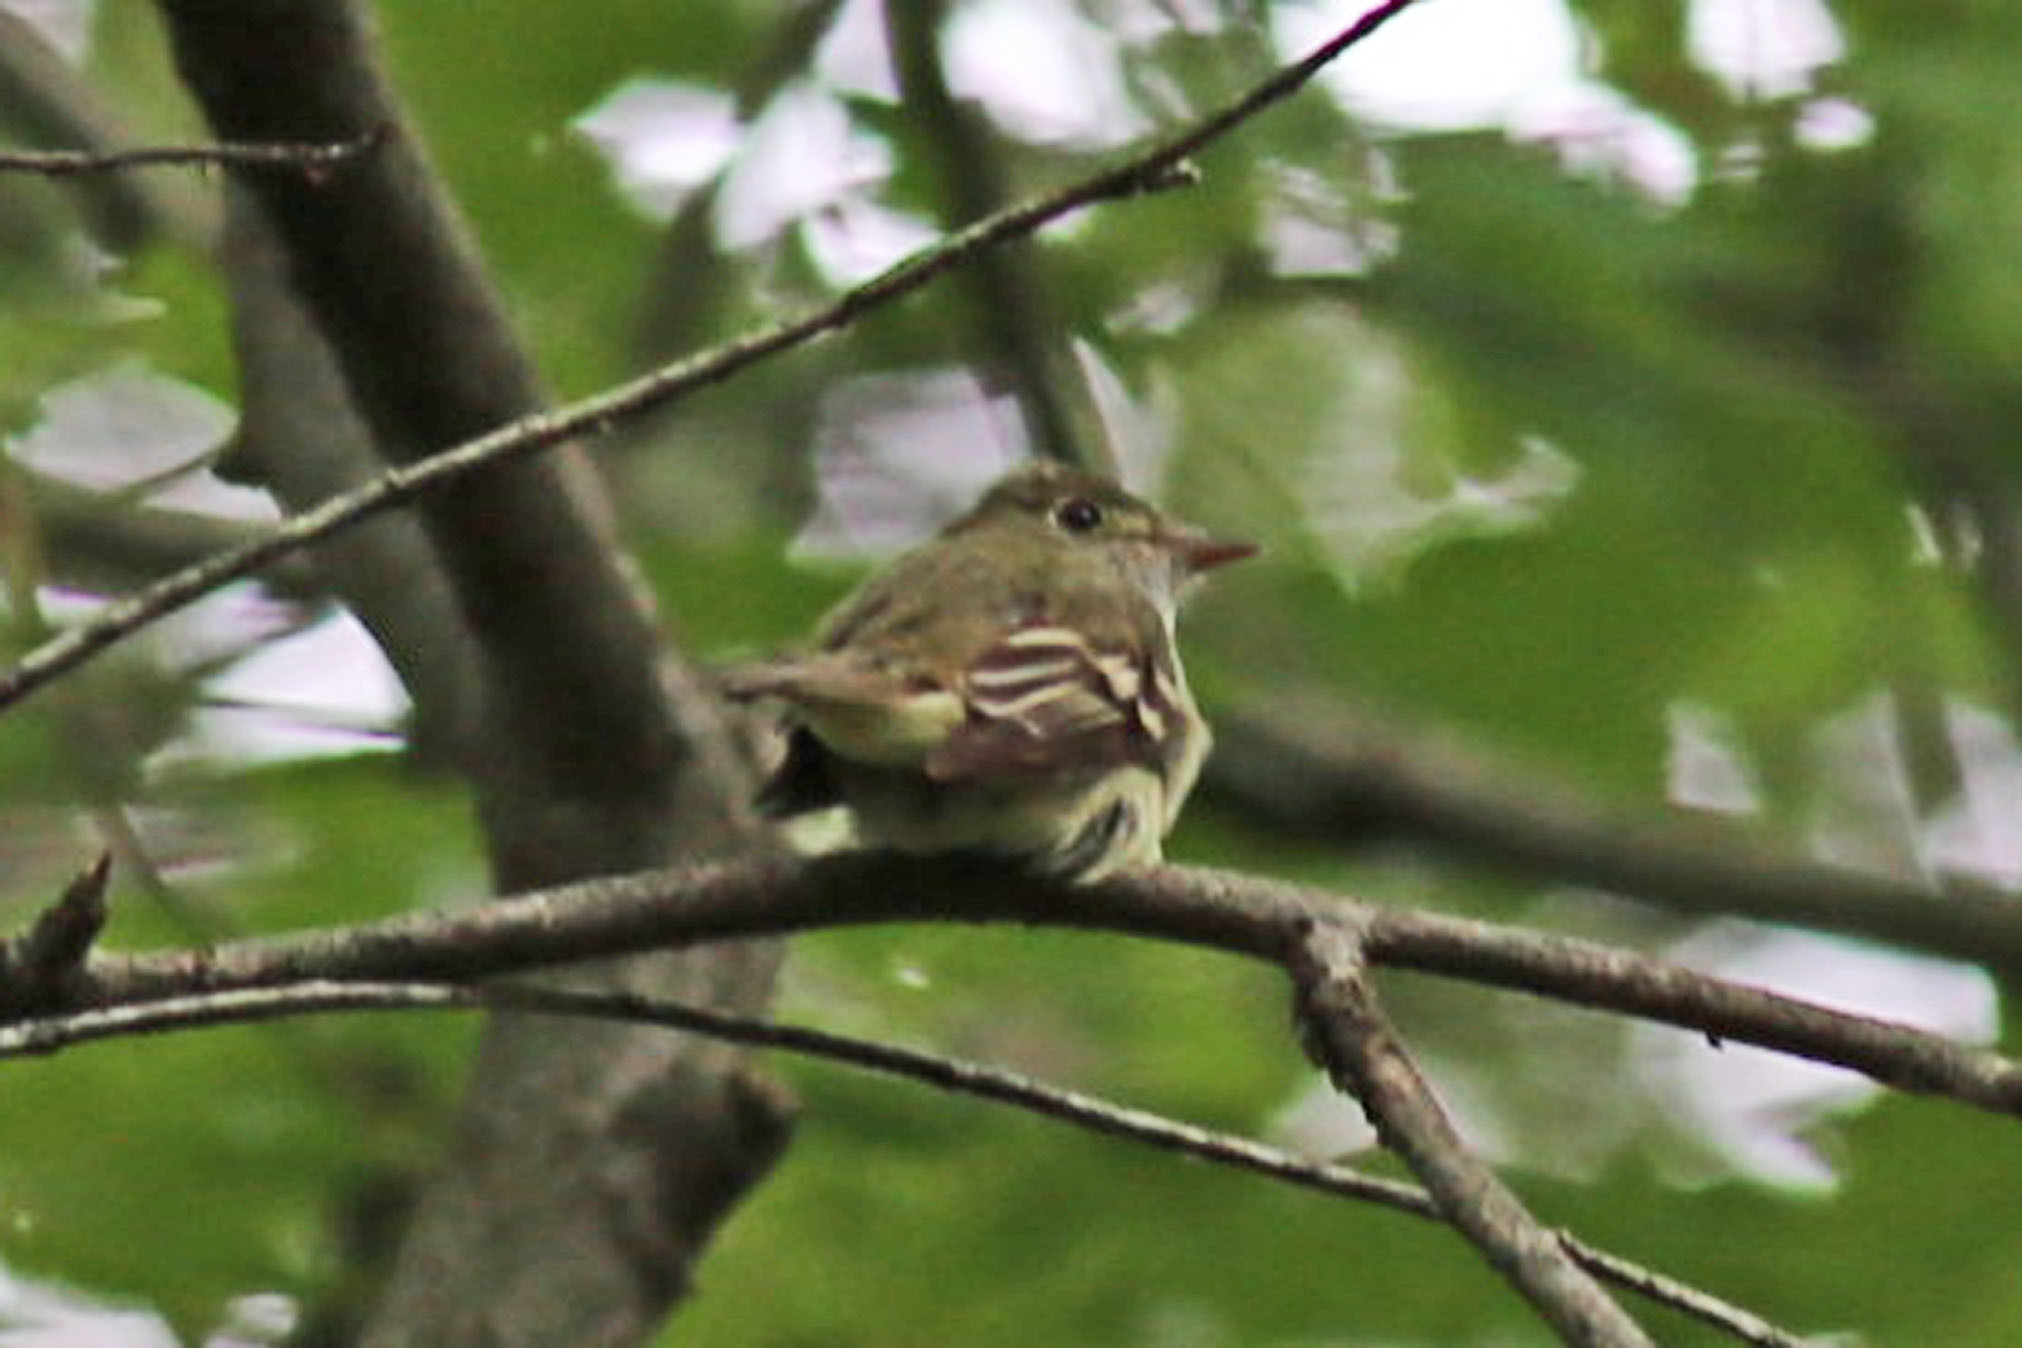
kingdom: Animalia
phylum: Chordata
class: Aves
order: Passeriformes
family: Tyrannidae
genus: Empidonax
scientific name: Empidonax virescens
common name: Acadian flycatcher
